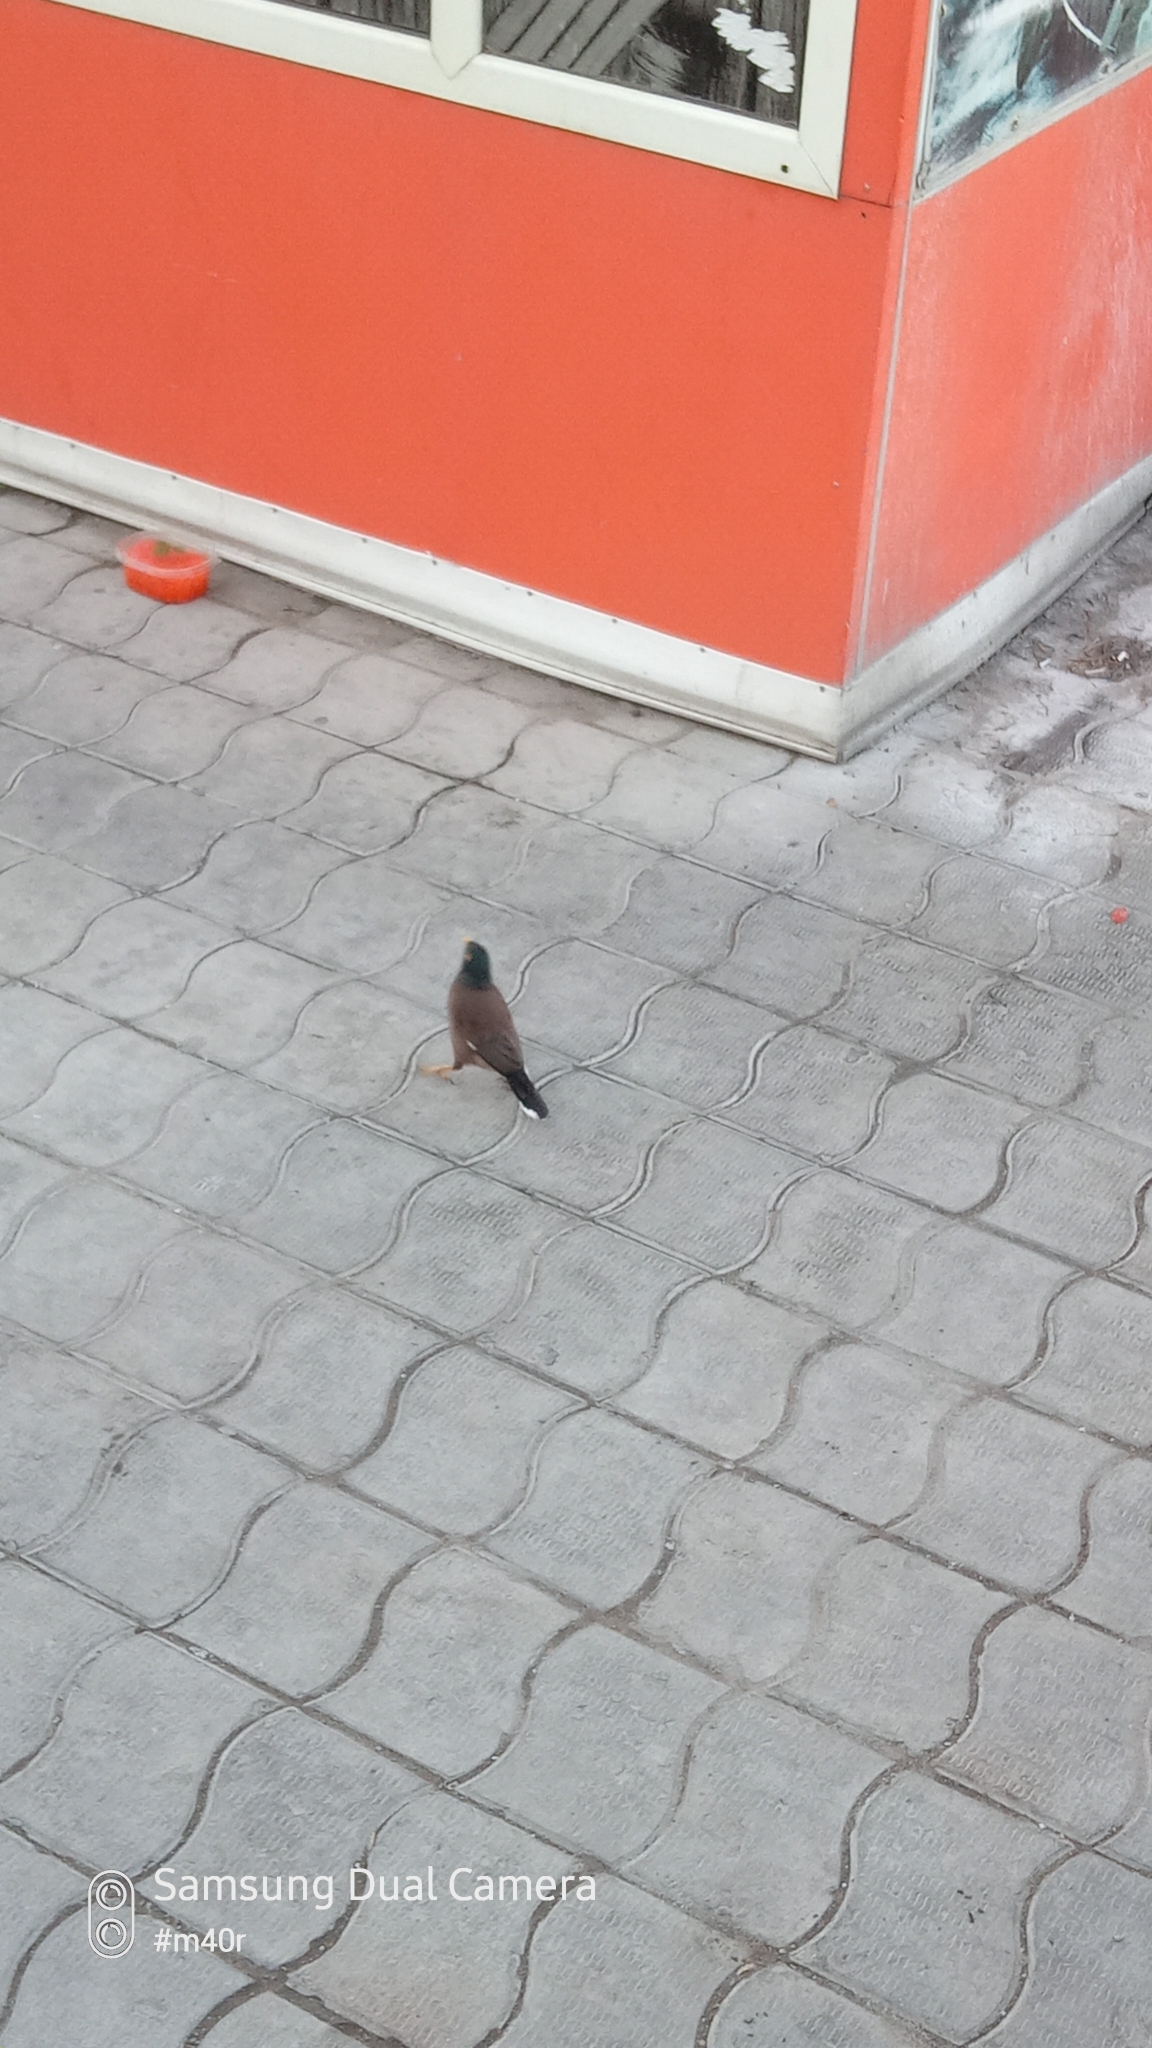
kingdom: Animalia
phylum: Chordata
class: Aves
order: Passeriformes
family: Sturnidae
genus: Acridotheres
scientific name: Acridotheres tristis
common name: Common myna
